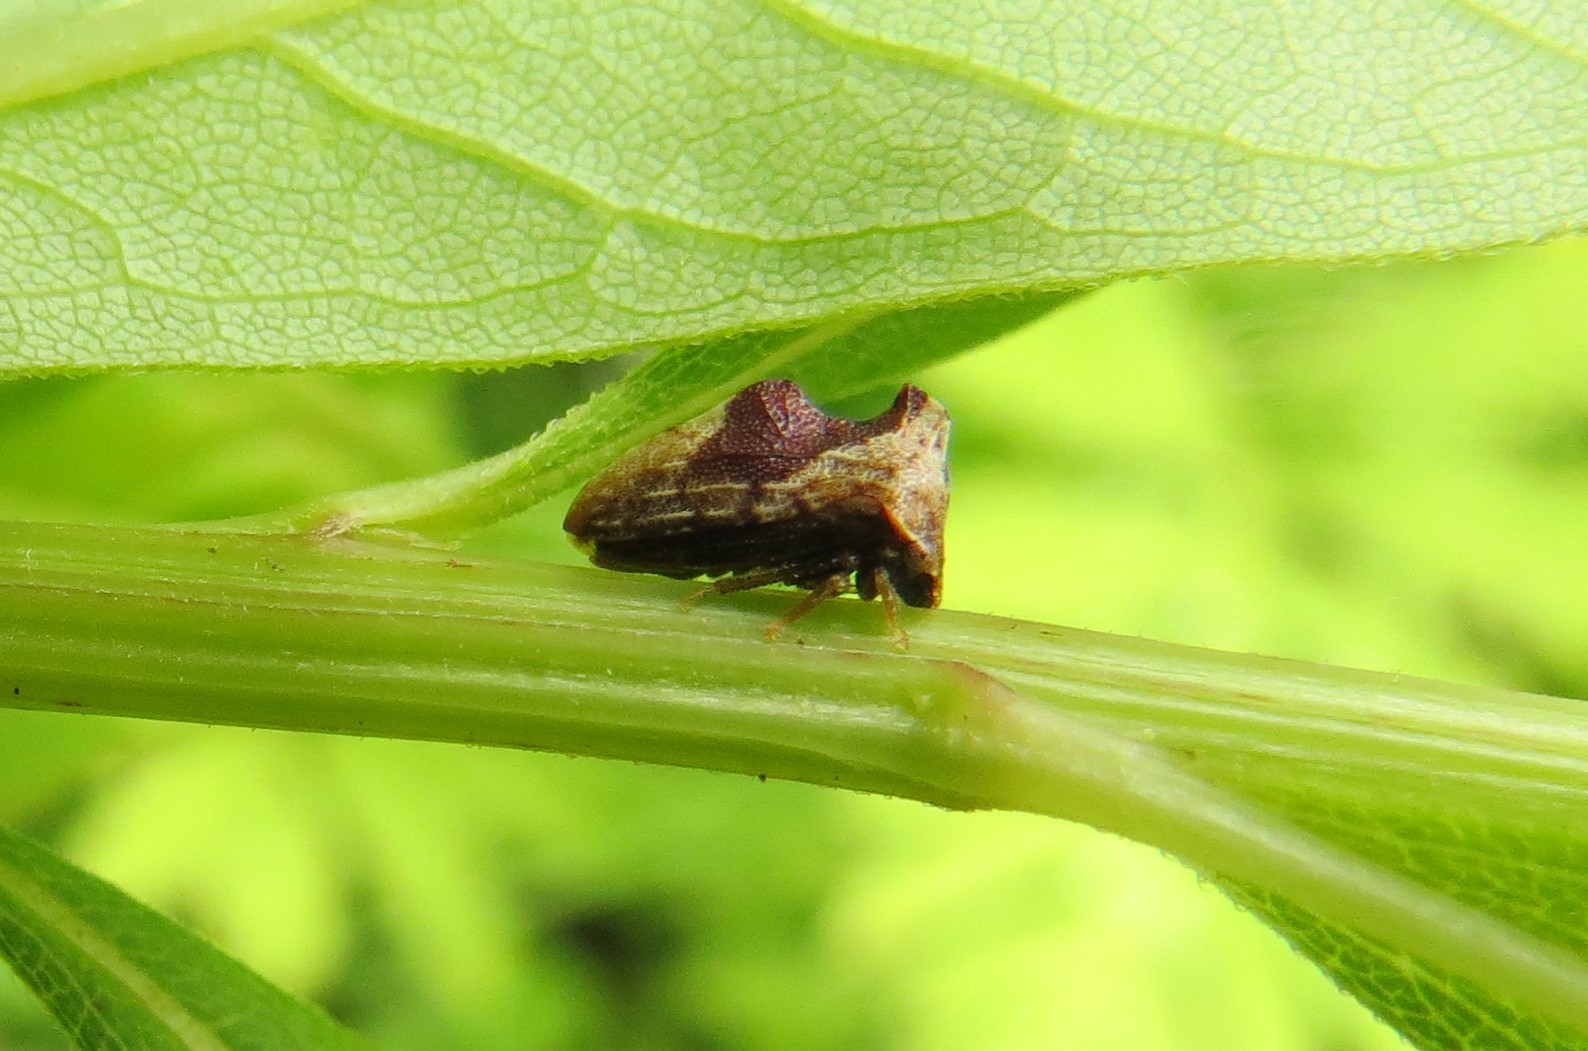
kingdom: Animalia
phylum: Arthropoda
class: Insecta
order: Hemiptera
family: Membracidae
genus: Entylia
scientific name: Entylia carinata
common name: Keeled treehopper
